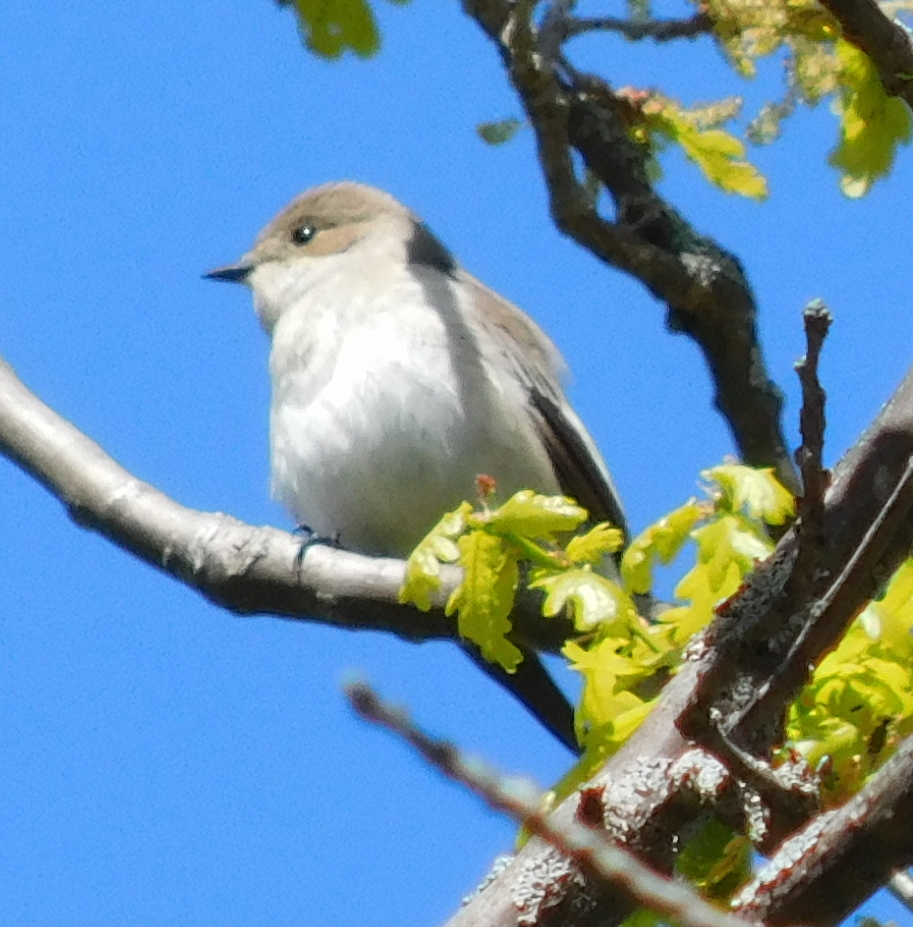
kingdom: Animalia
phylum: Chordata
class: Aves
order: Passeriformes
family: Muscicapidae
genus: Ficedula
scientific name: Ficedula hypoleuca
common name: European pied flycatcher
